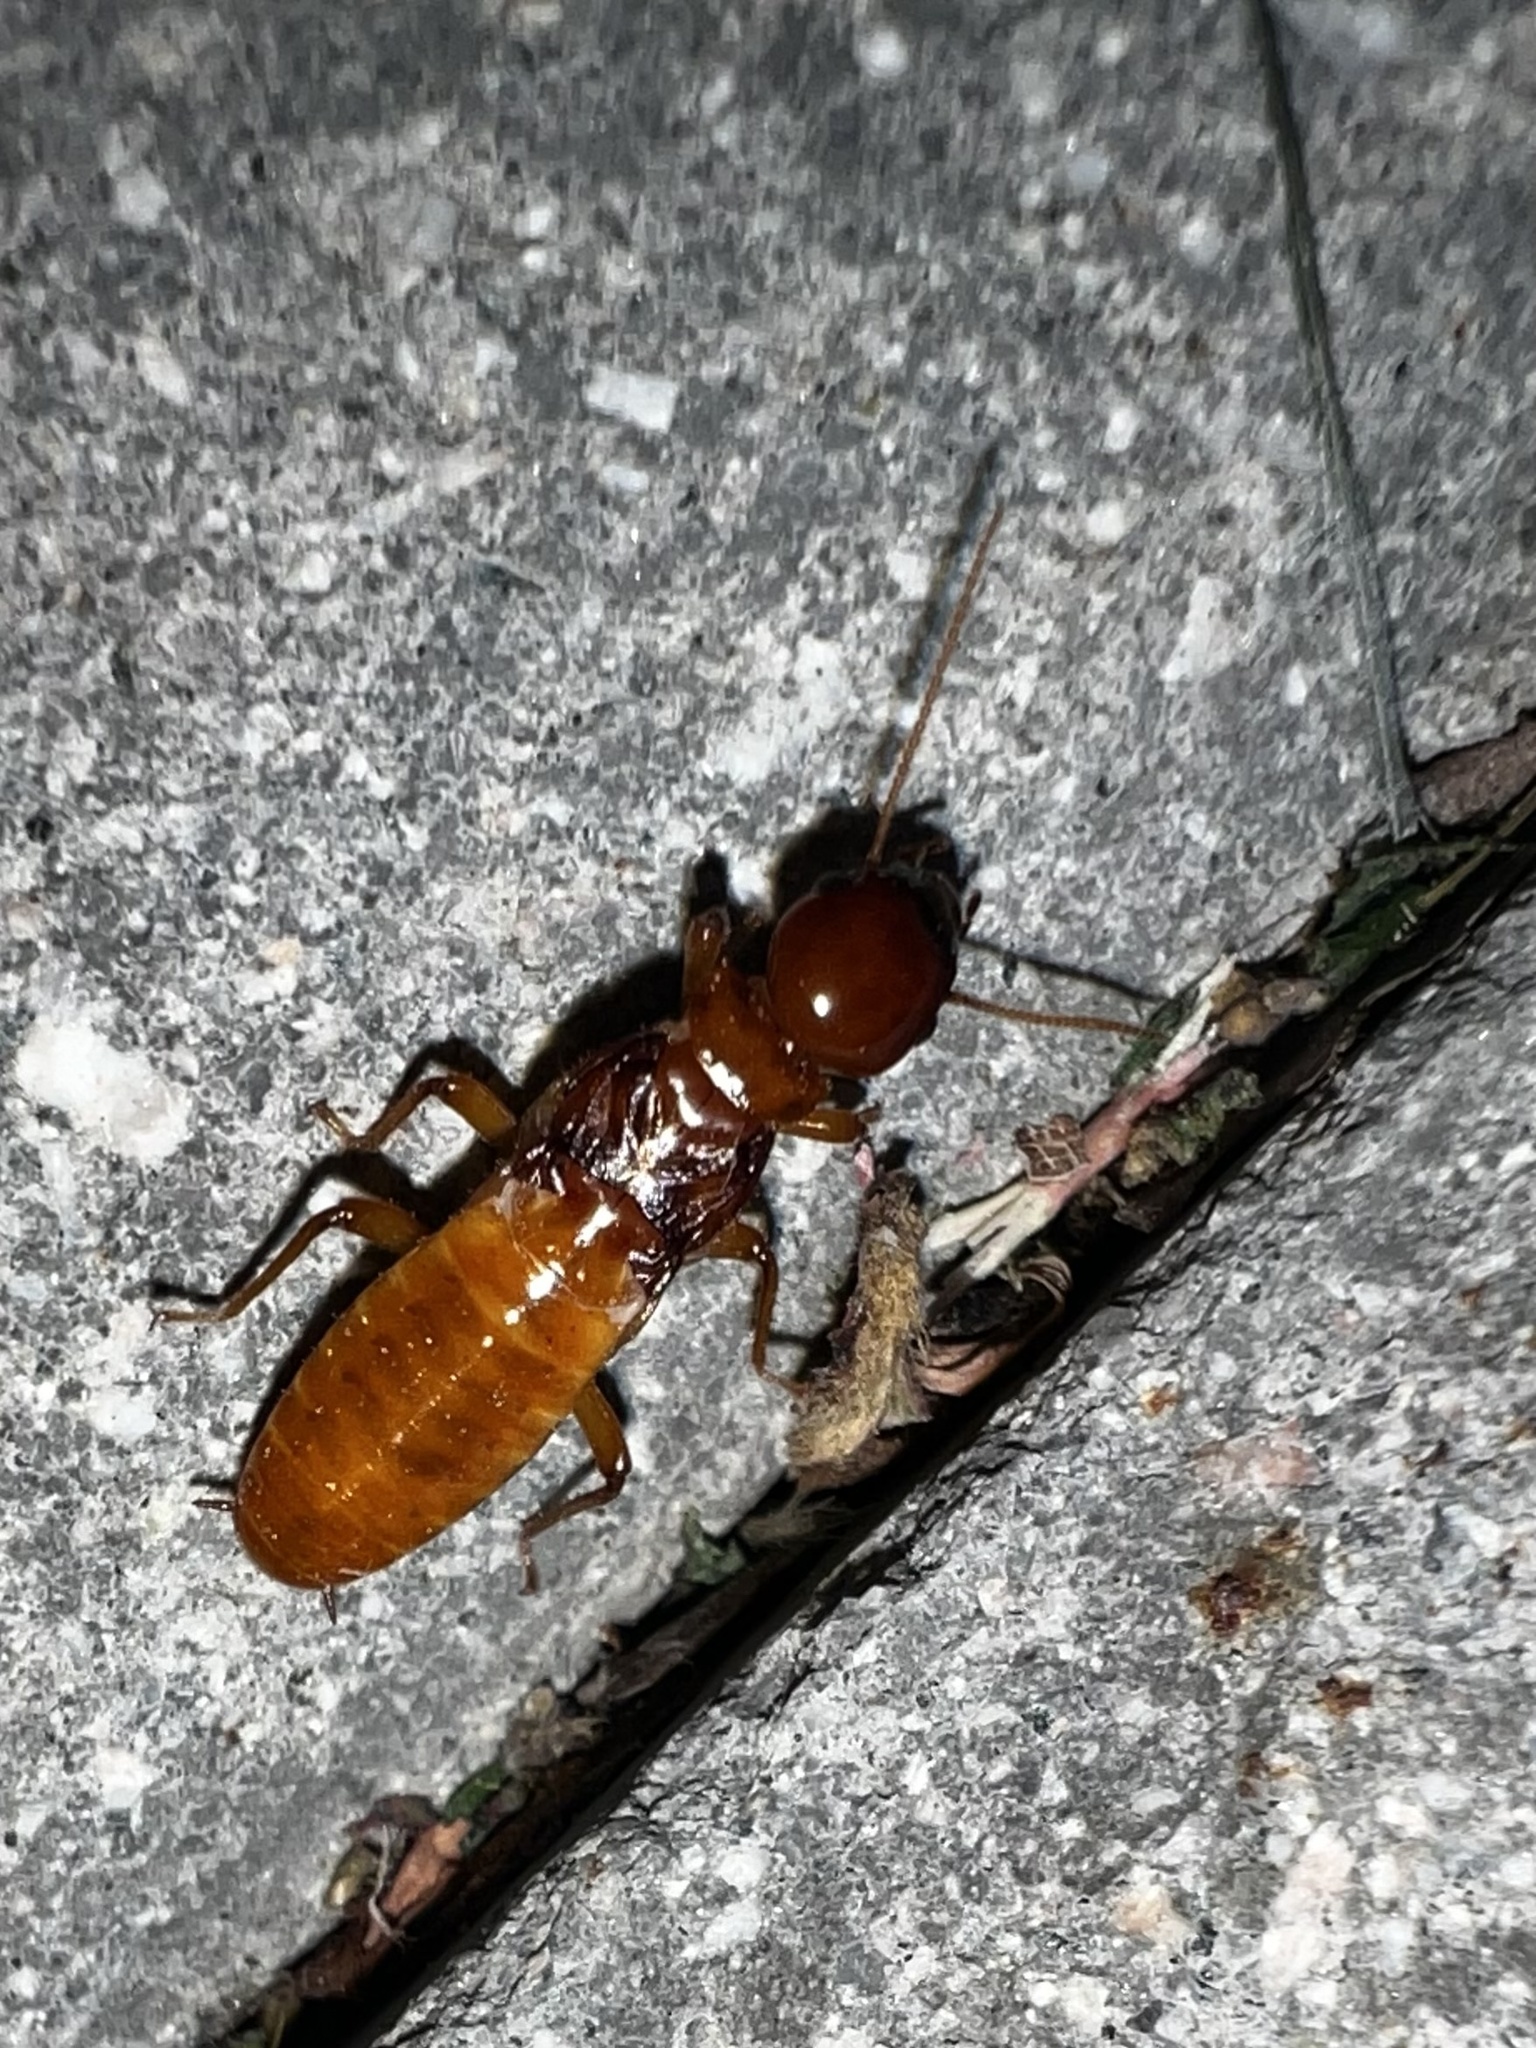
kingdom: Animalia
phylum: Arthropoda
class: Insecta
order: Blattodea
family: Archotermopsidae
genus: Zootermopsis
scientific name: Zootermopsis angusticollis
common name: Rottenwood termite
